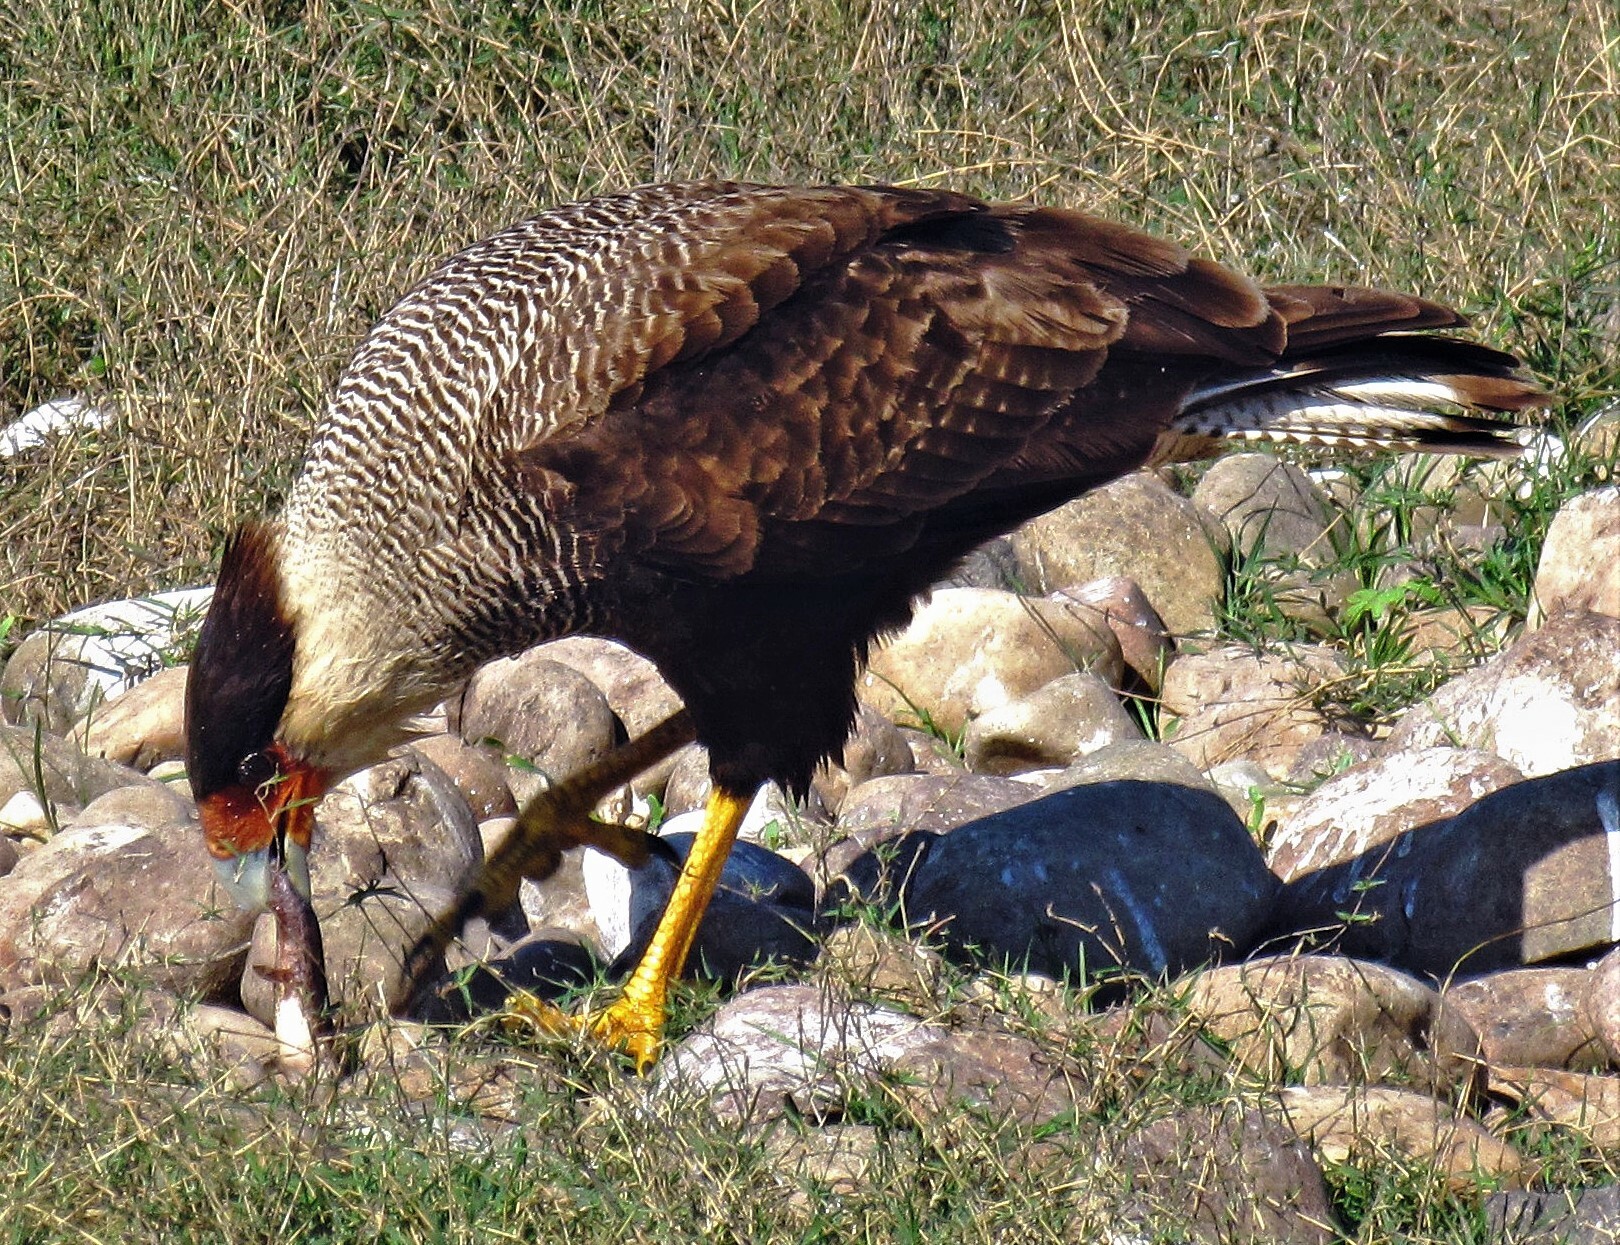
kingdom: Animalia
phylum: Chordata
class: Aves
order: Falconiformes
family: Falconidae
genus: Caracara
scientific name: Caracara plancus
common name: Southern caracara
